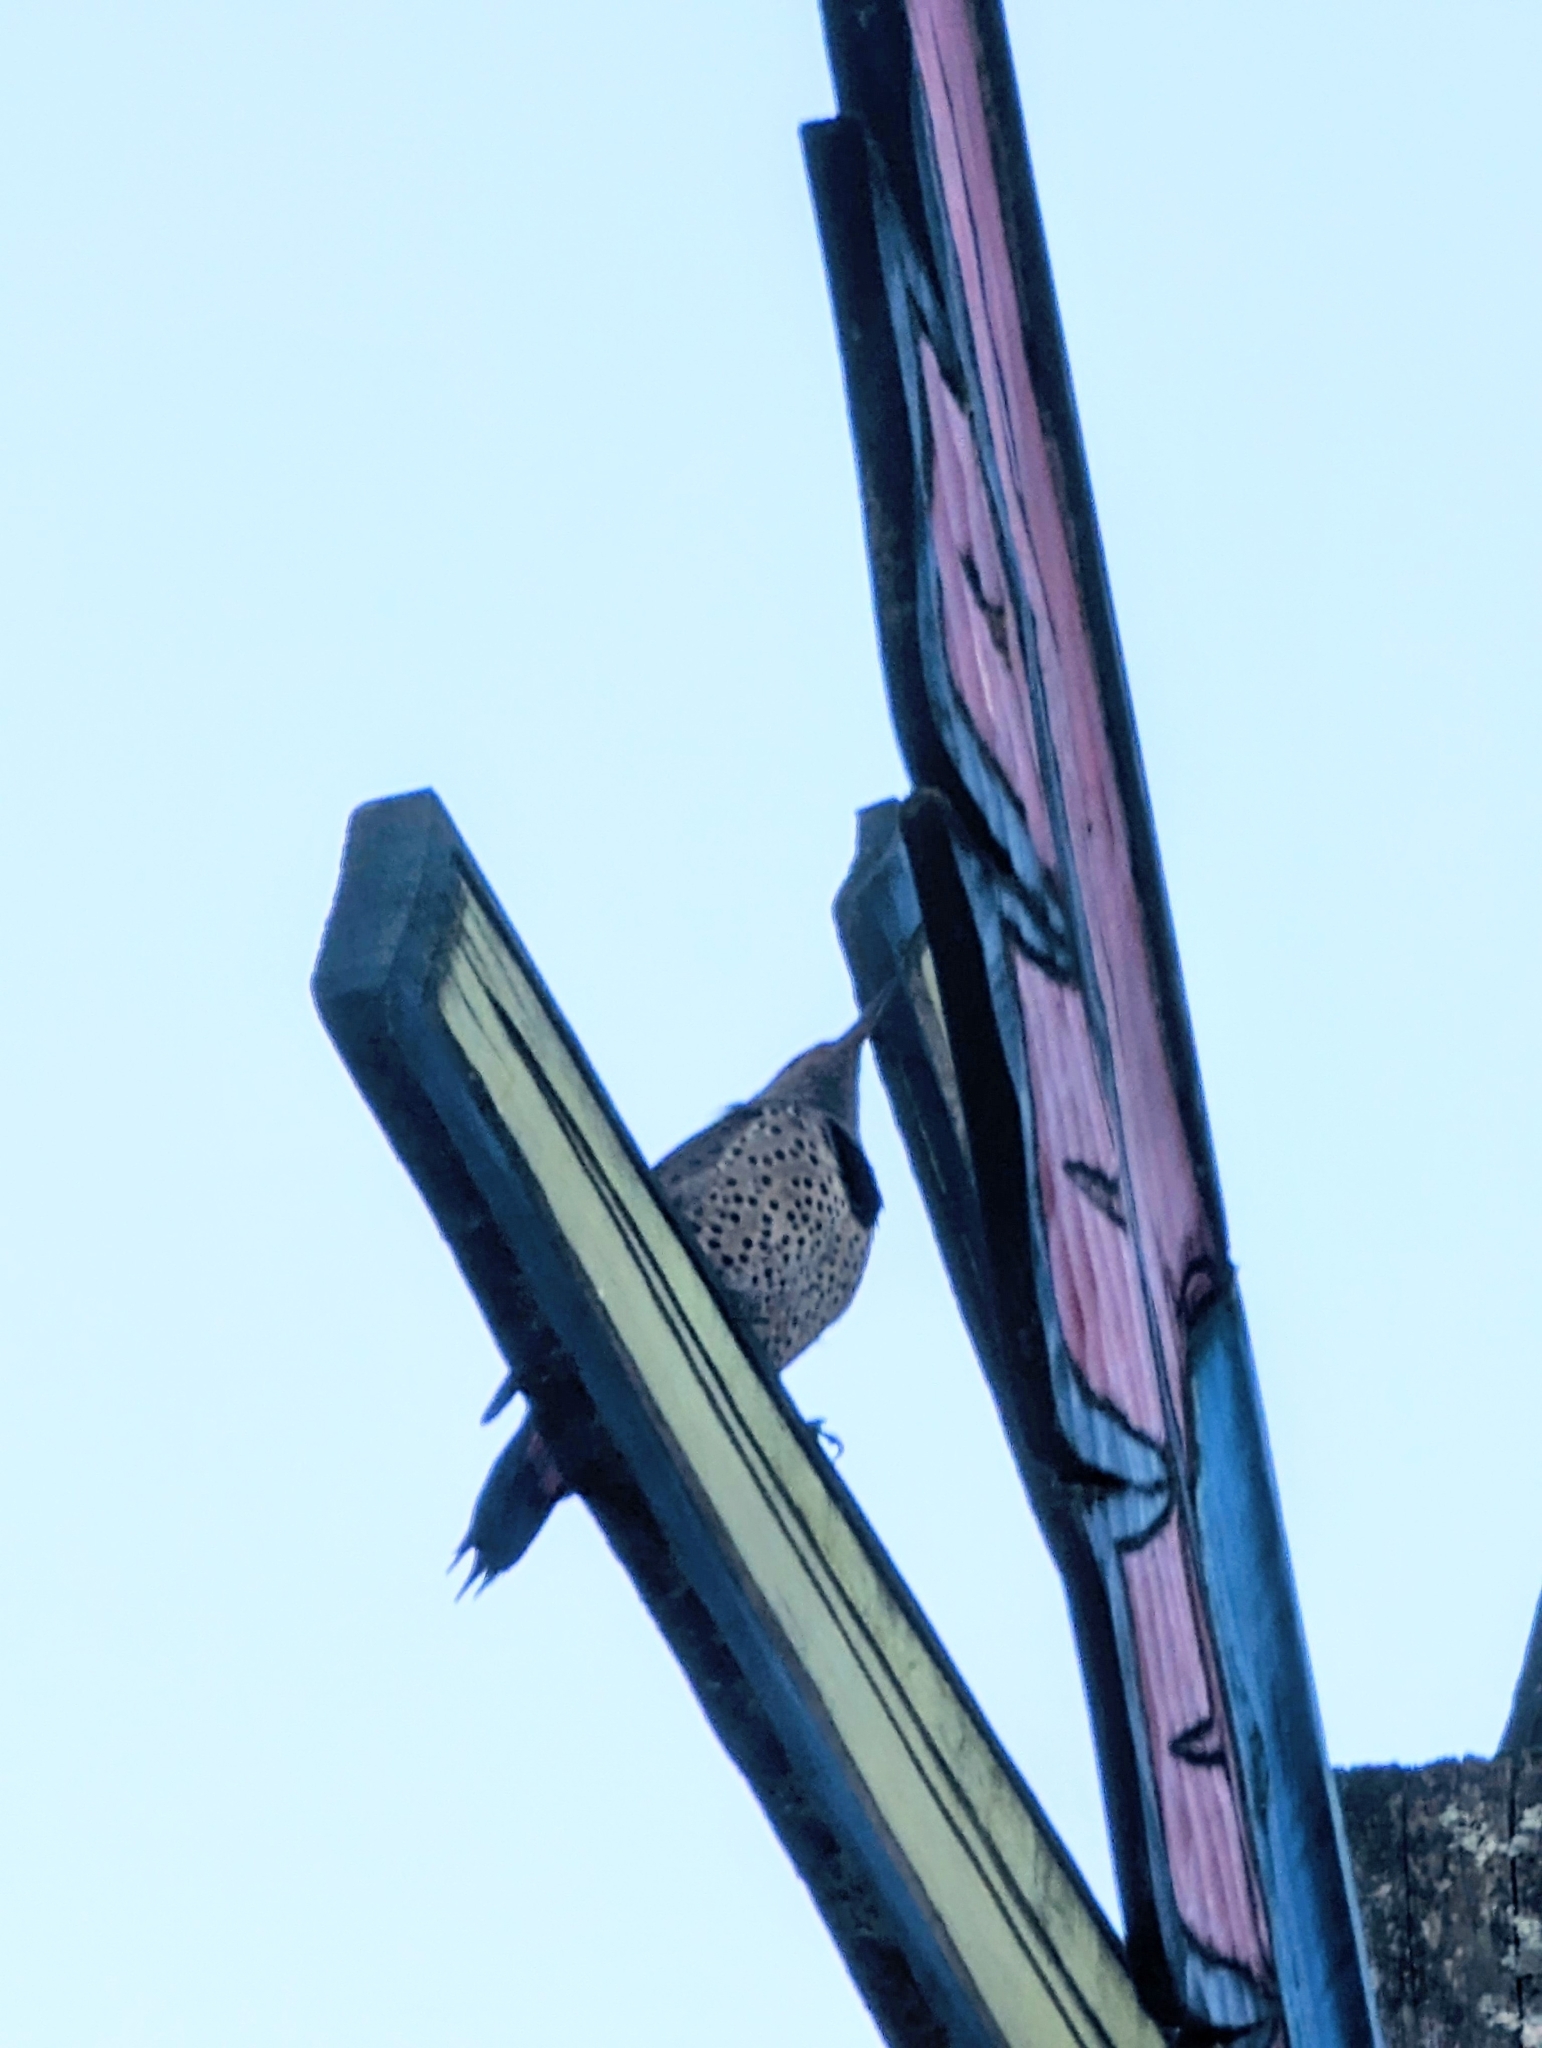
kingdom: Animalia
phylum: Chordata
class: Aves
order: Piciformes
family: Picidae
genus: Colaptes
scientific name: Colaptes auratus
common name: Northern flicker
